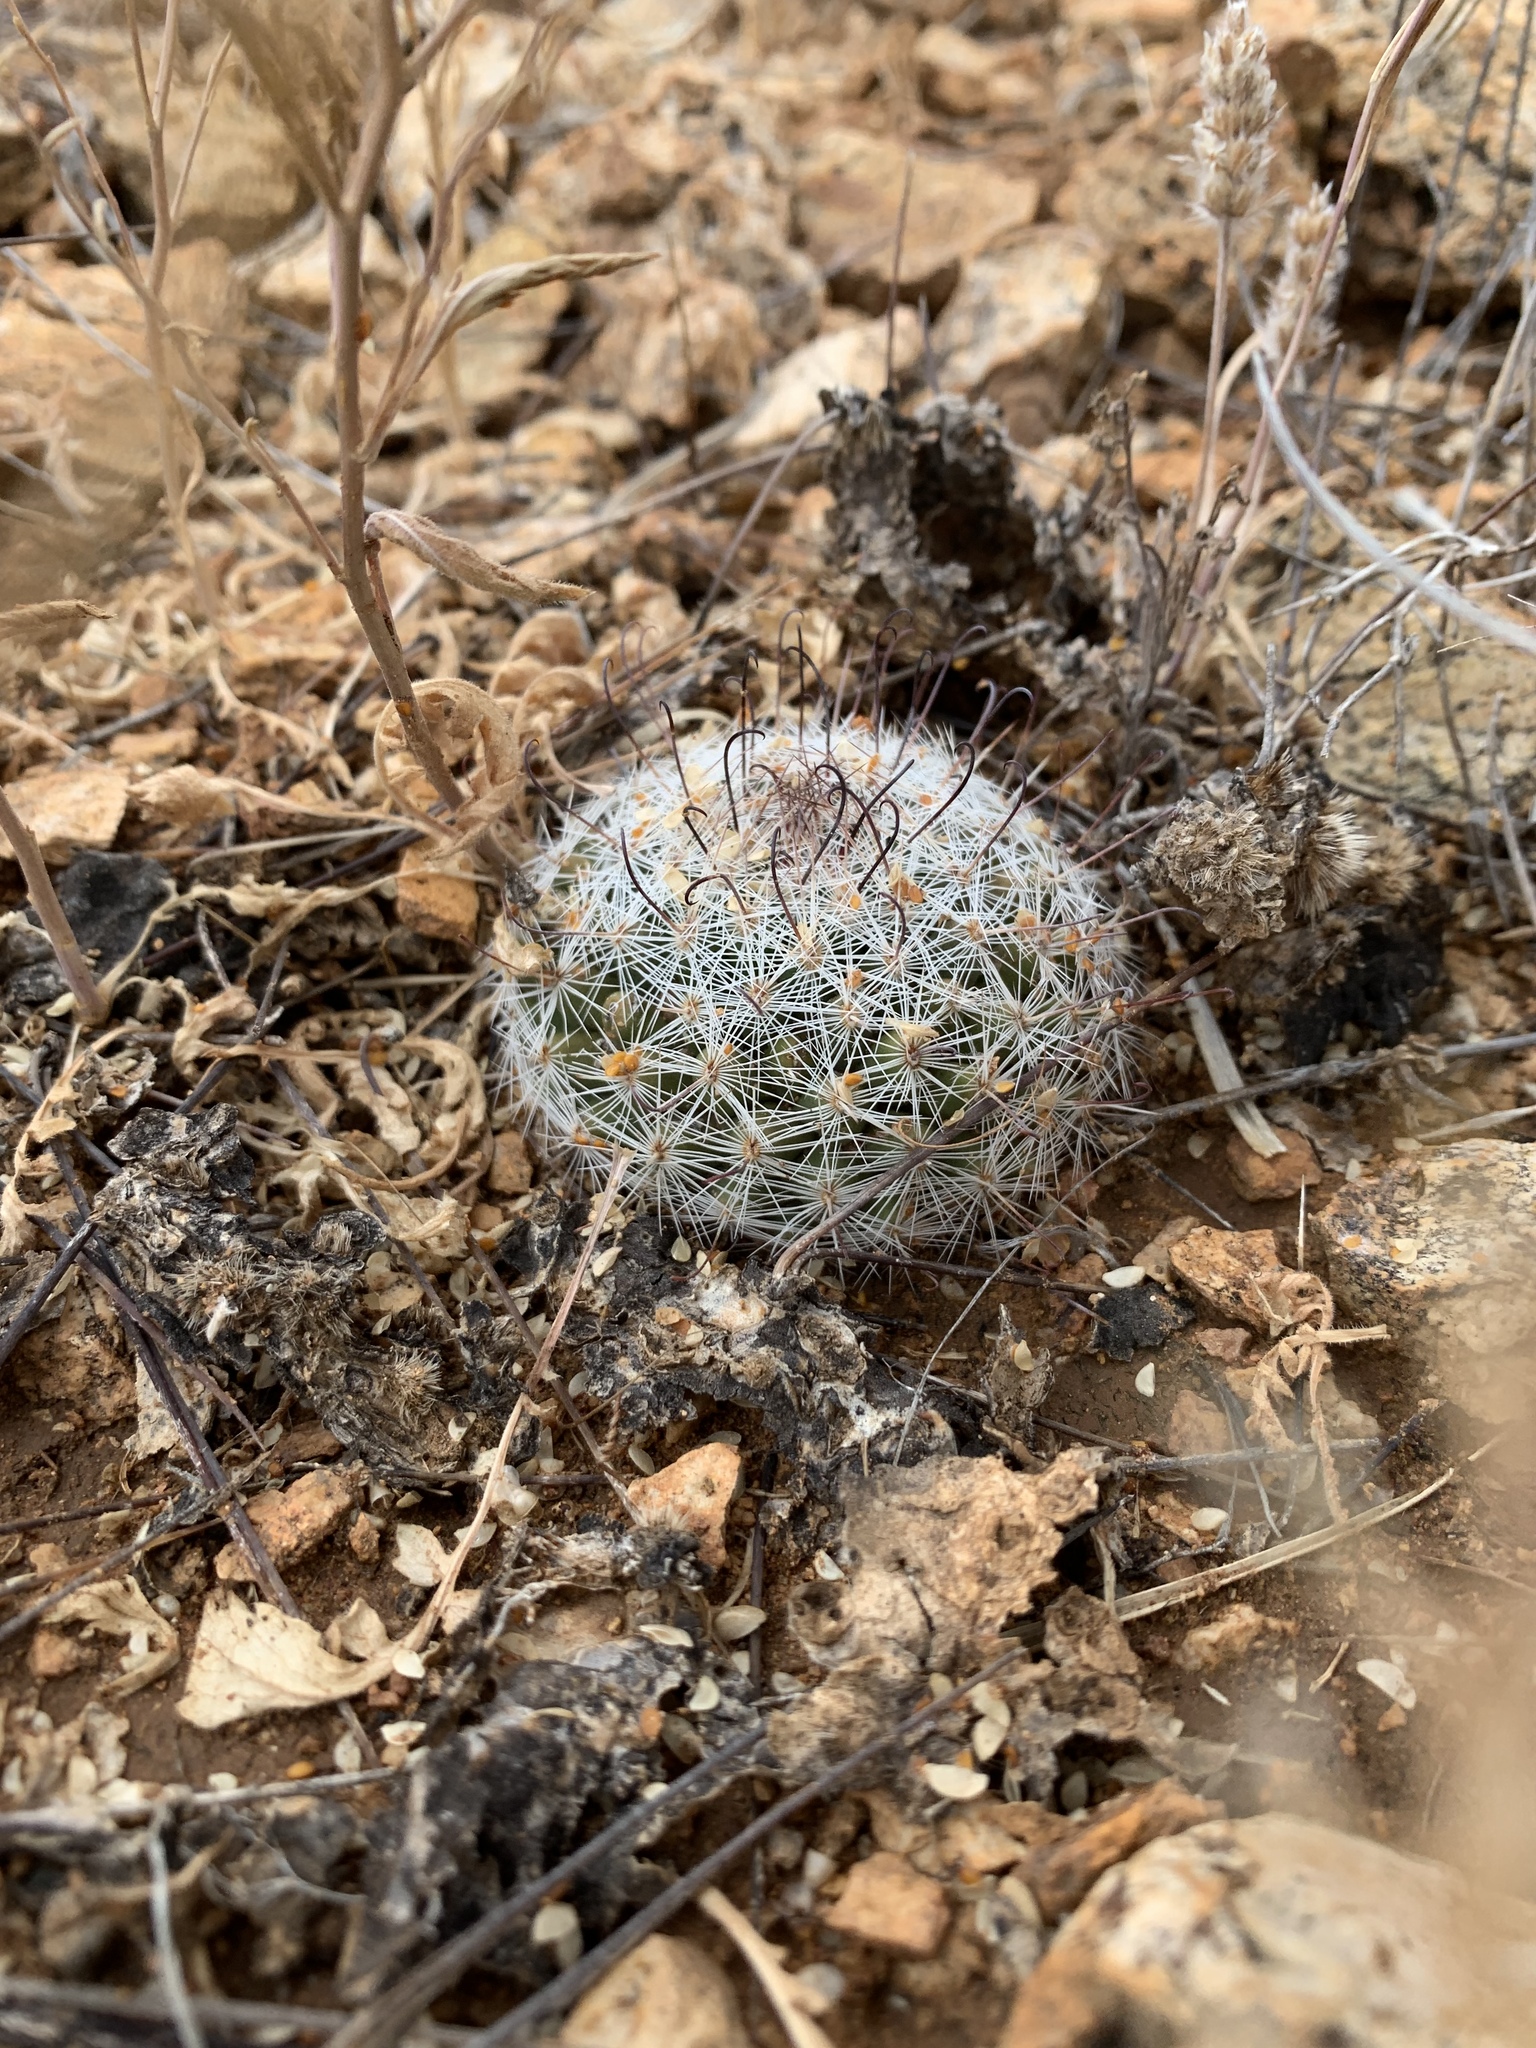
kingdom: Plantae
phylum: Tracheophyta
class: Magnoliopsida
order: Caryophyllales
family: Cactaceae
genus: Cochemiea
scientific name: Cochemiea grahamii
